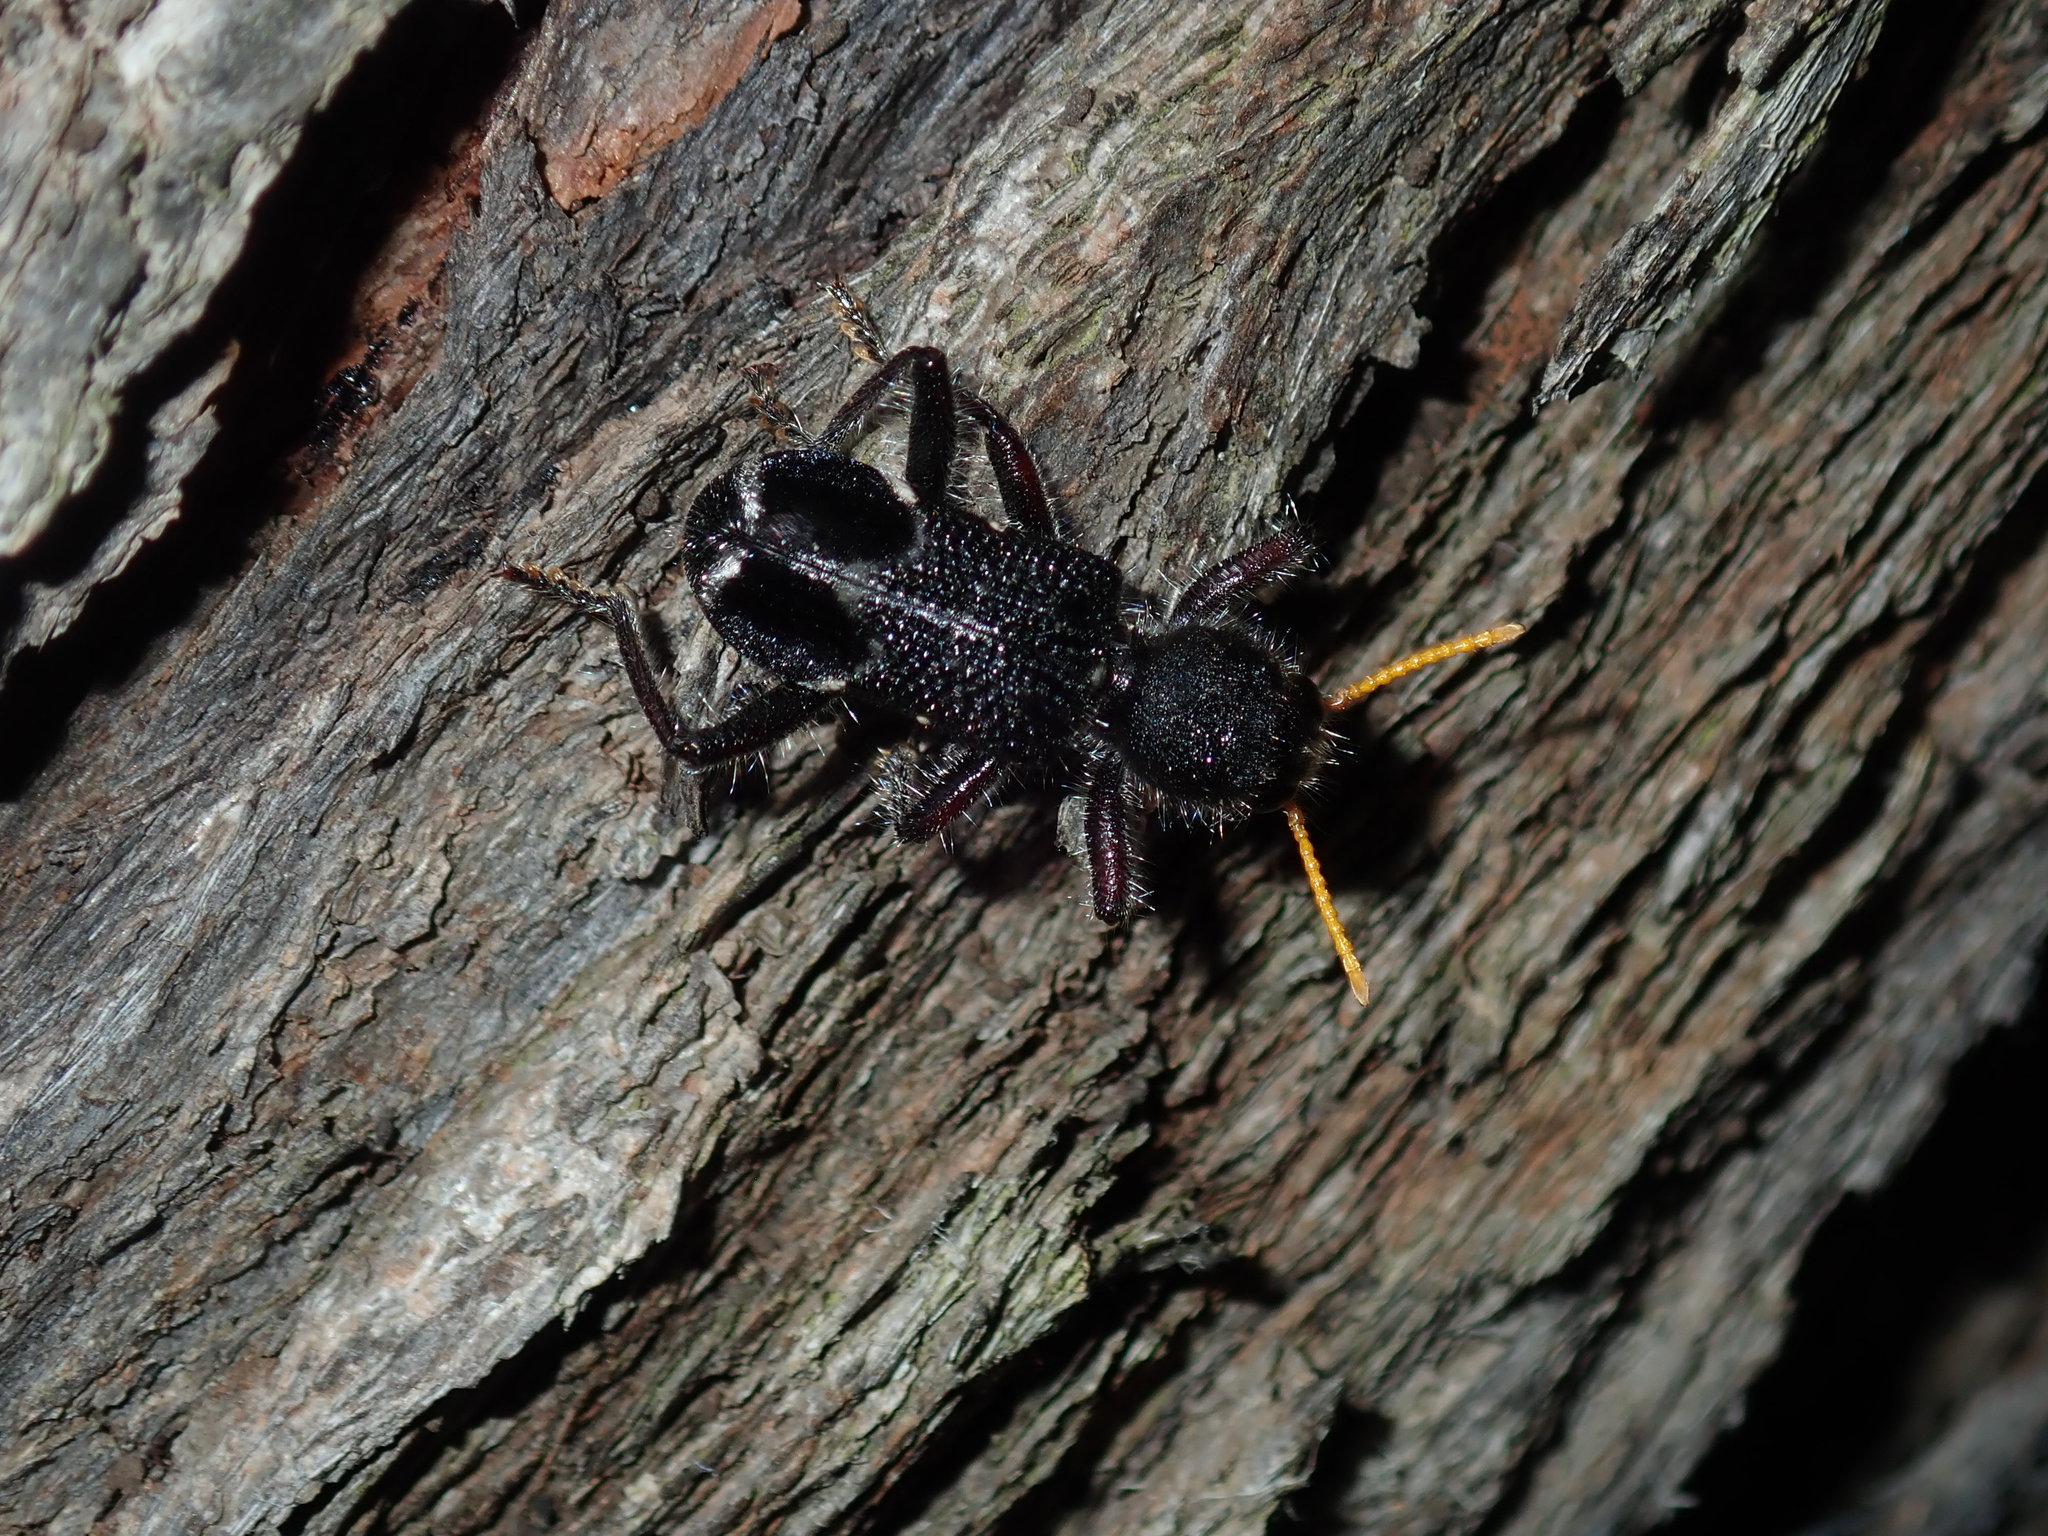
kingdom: Animalia
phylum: Arthropoda
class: Insecta
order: Coleoptera
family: Cleridae
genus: Trogodendron
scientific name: Trogodendron fasiculatum
